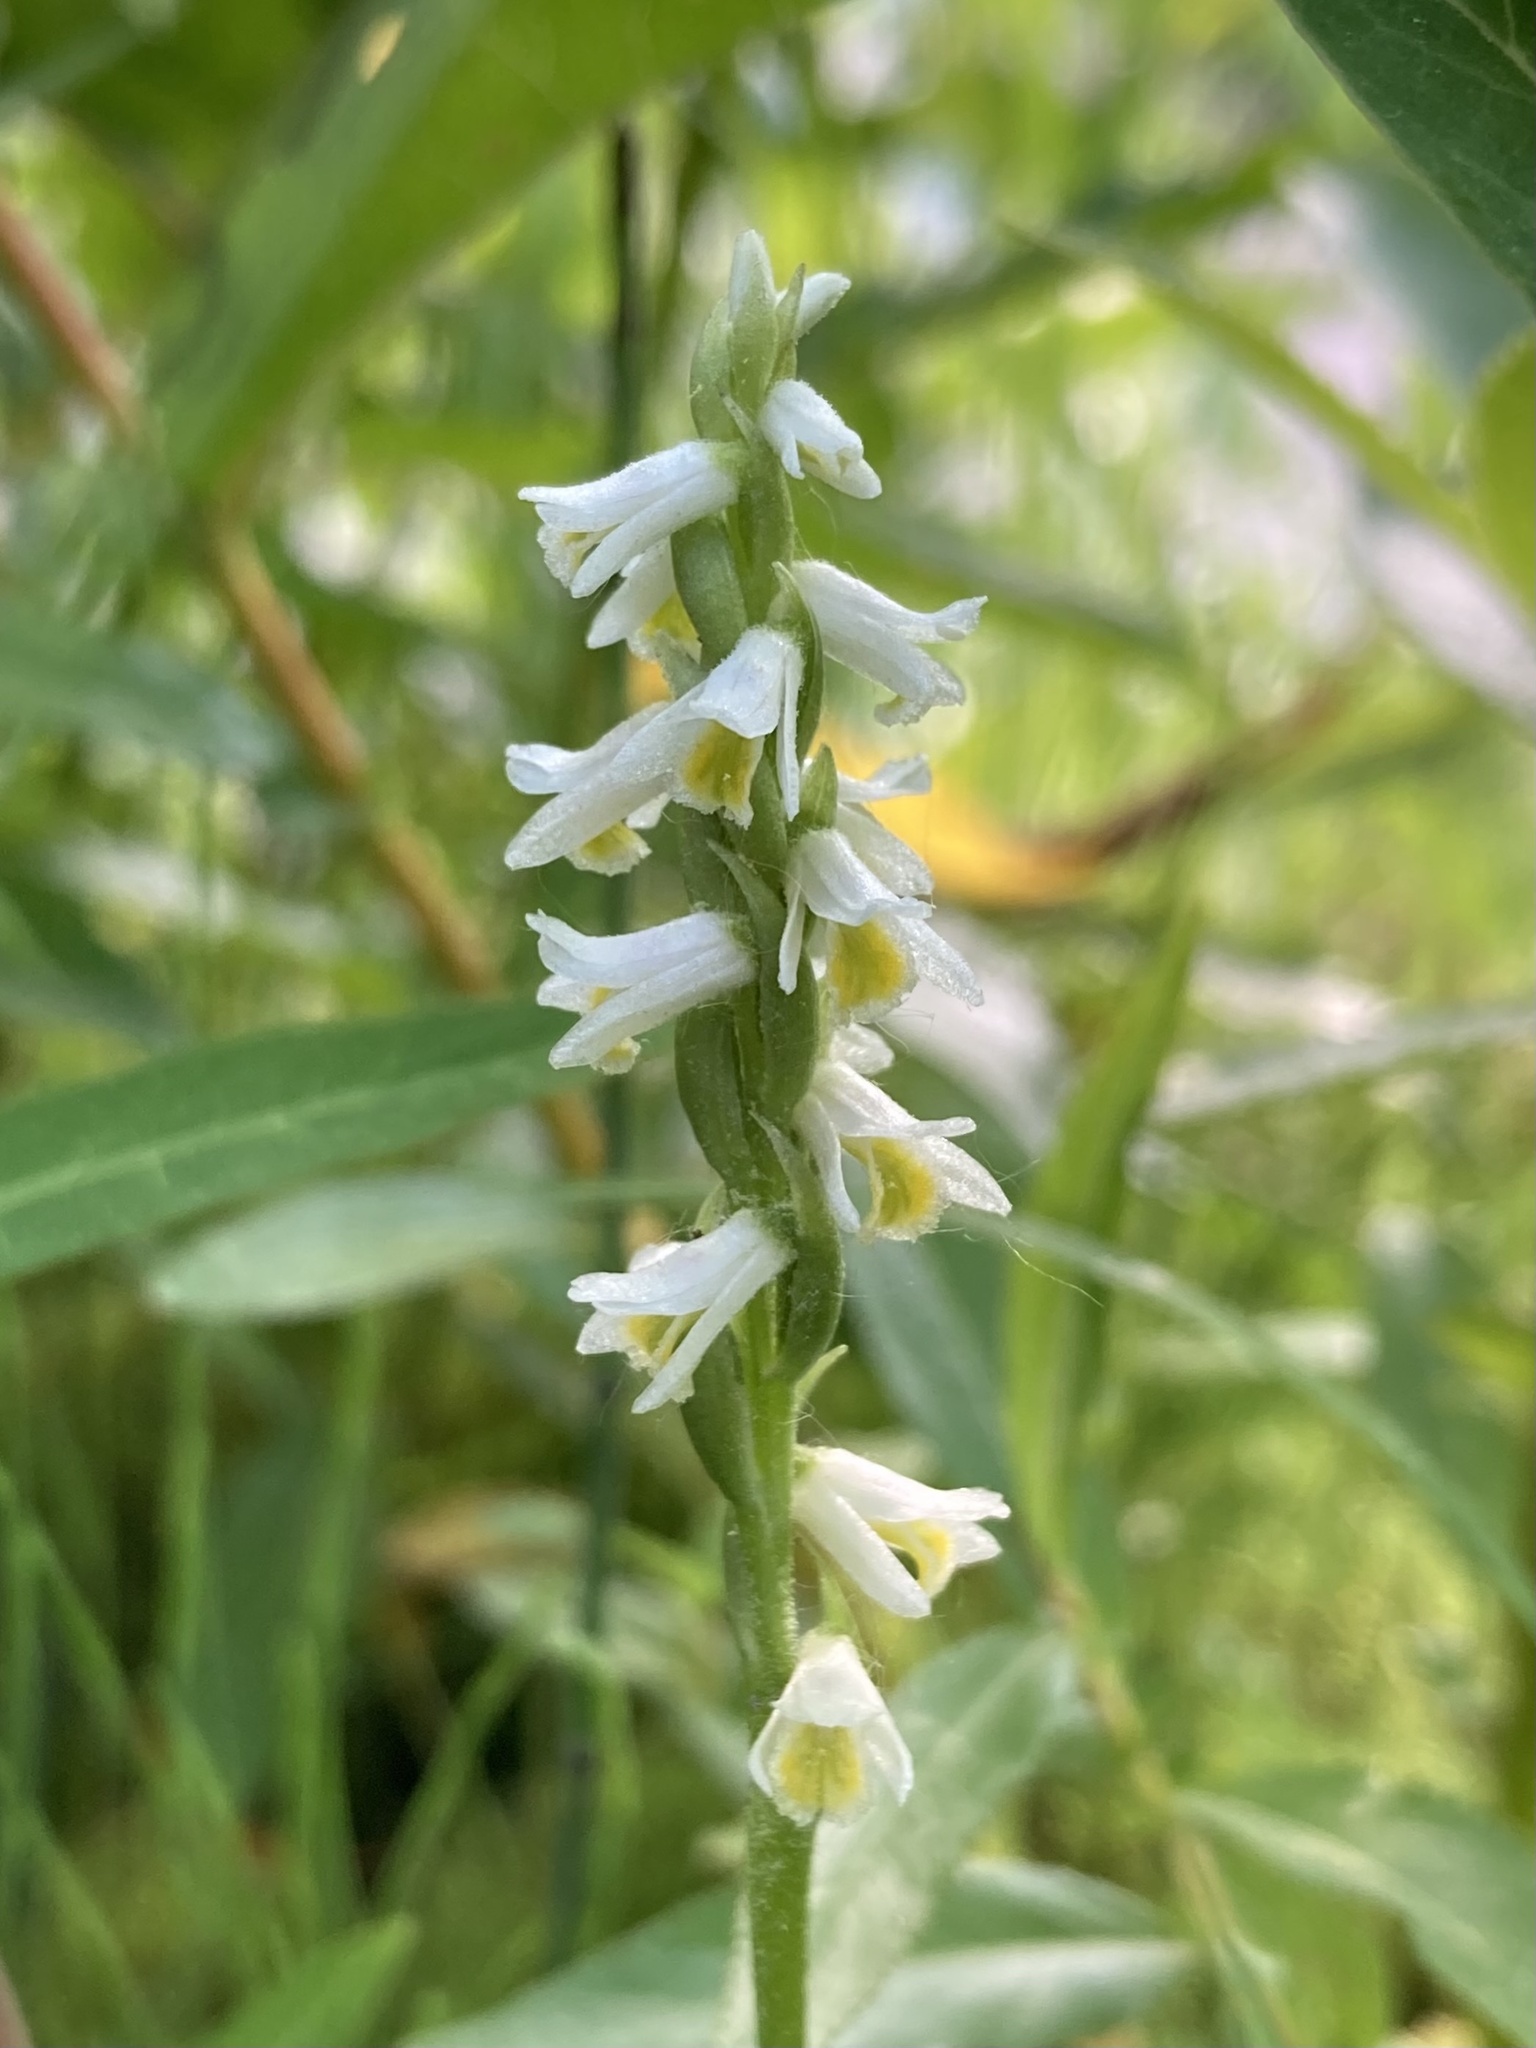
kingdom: Plantae
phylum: Tracheophyta
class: Liliopsida
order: Asparagales
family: Orchidaceae
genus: Spiranthes
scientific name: Spiranthes lucida
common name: Broad-leaved ladies'-tresses
